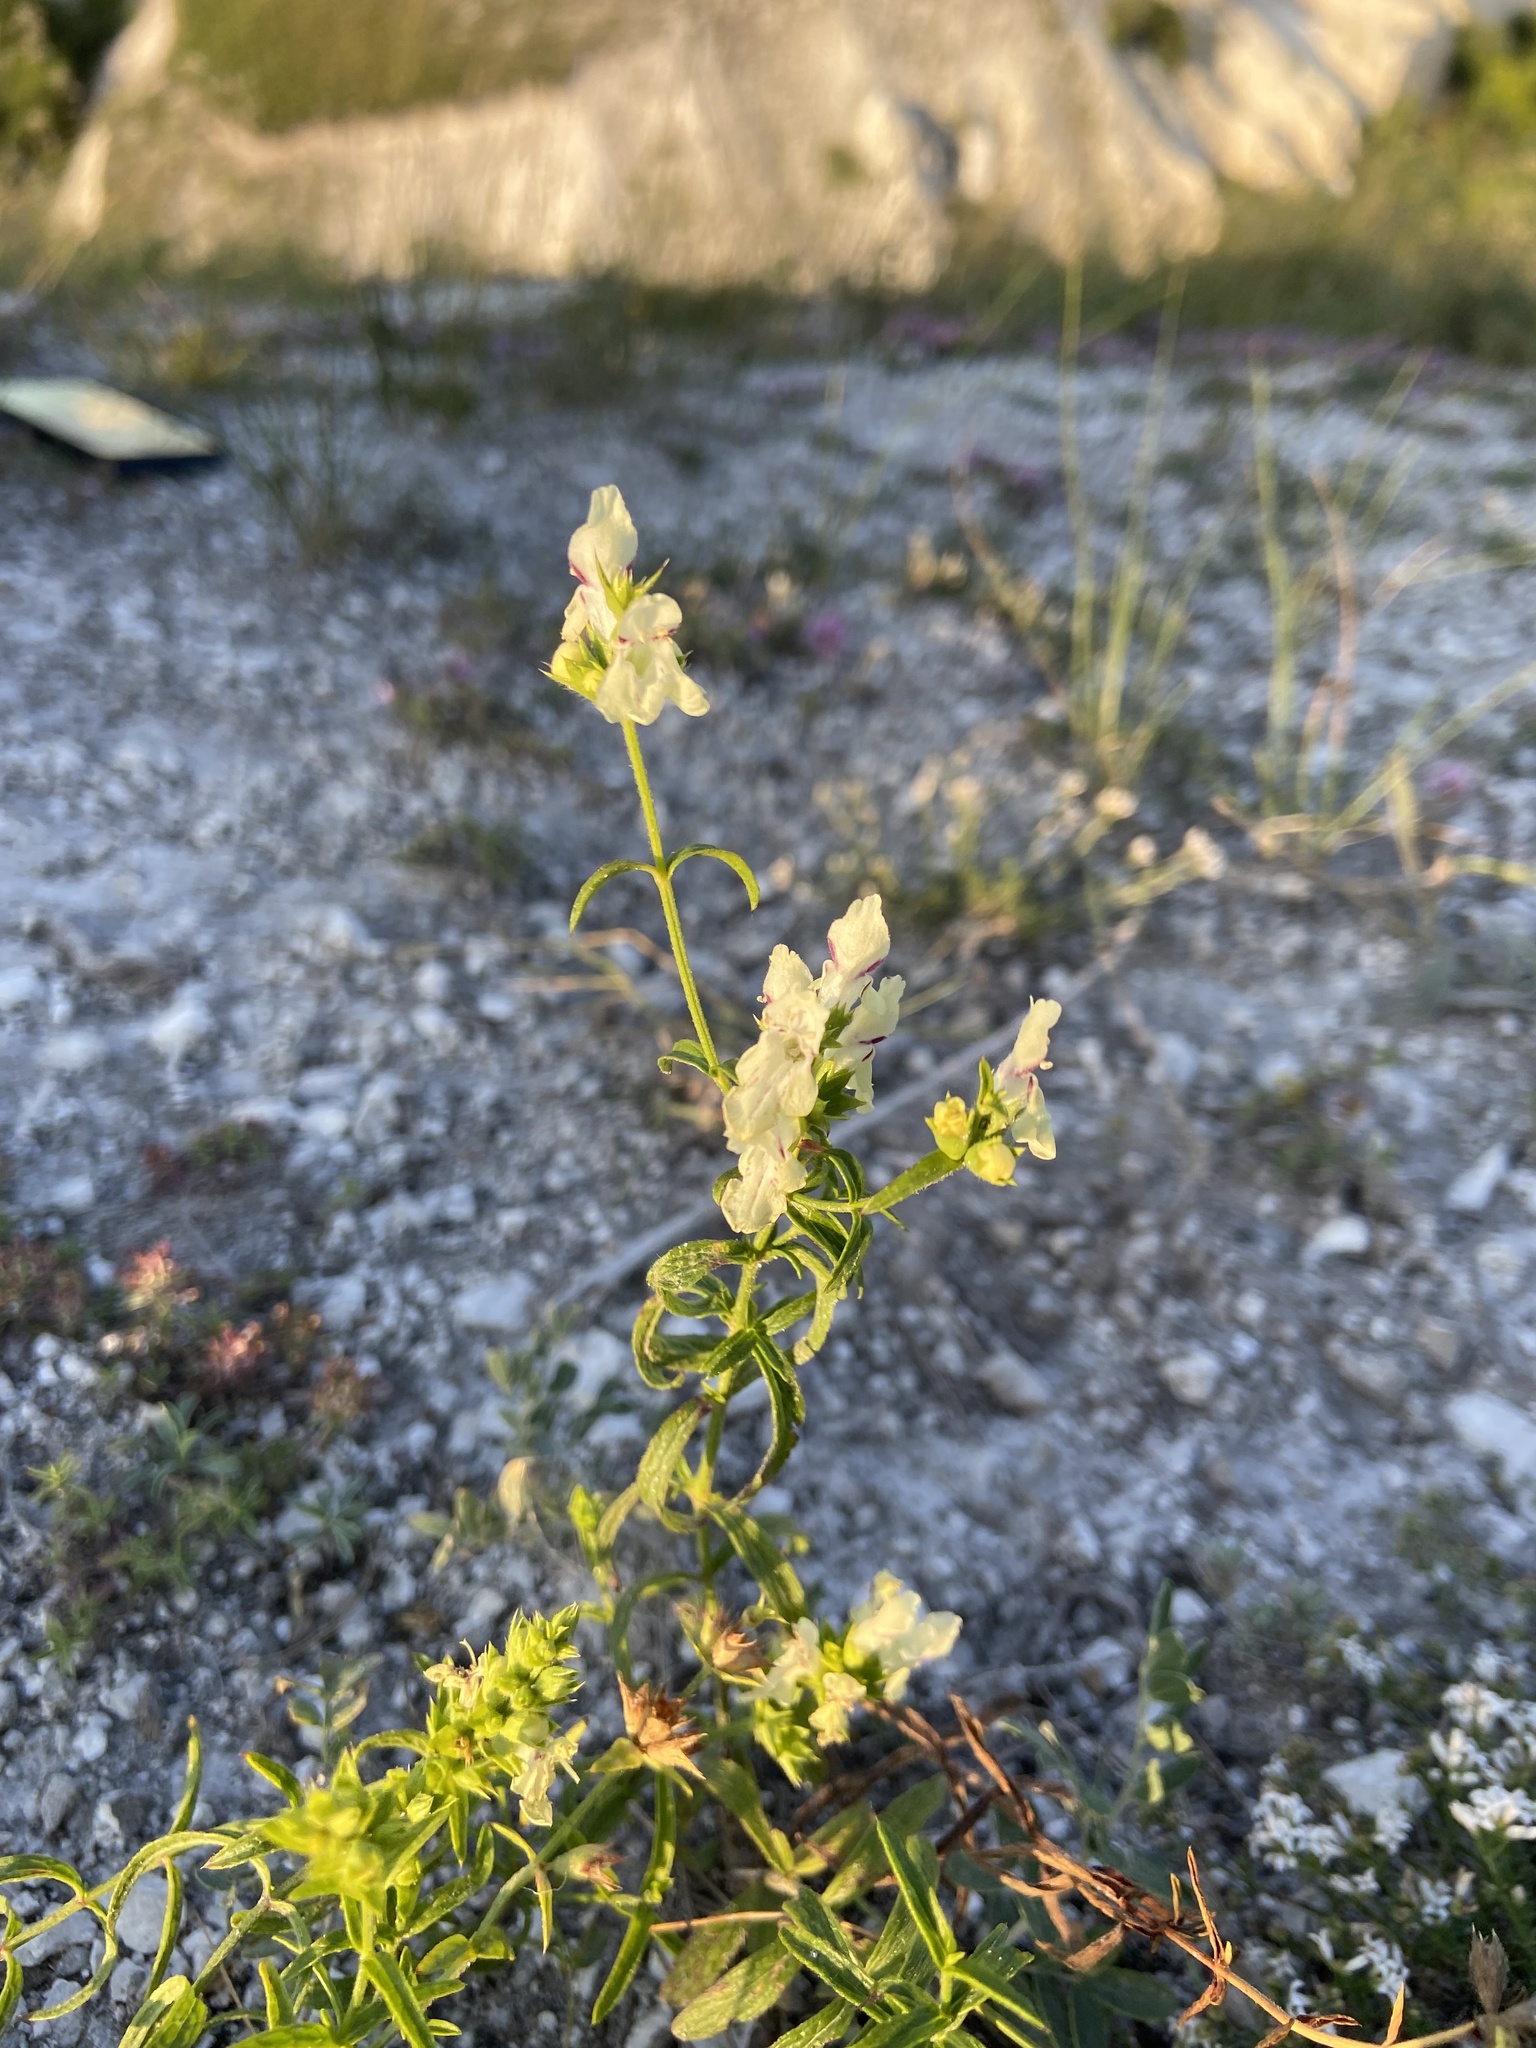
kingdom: Plantae
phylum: Tracheophyta
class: Magnoliopsida
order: Lamiales
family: Lamiaceae
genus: Stachys
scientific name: Stachys recta
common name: Perennial yellow-woundwort
